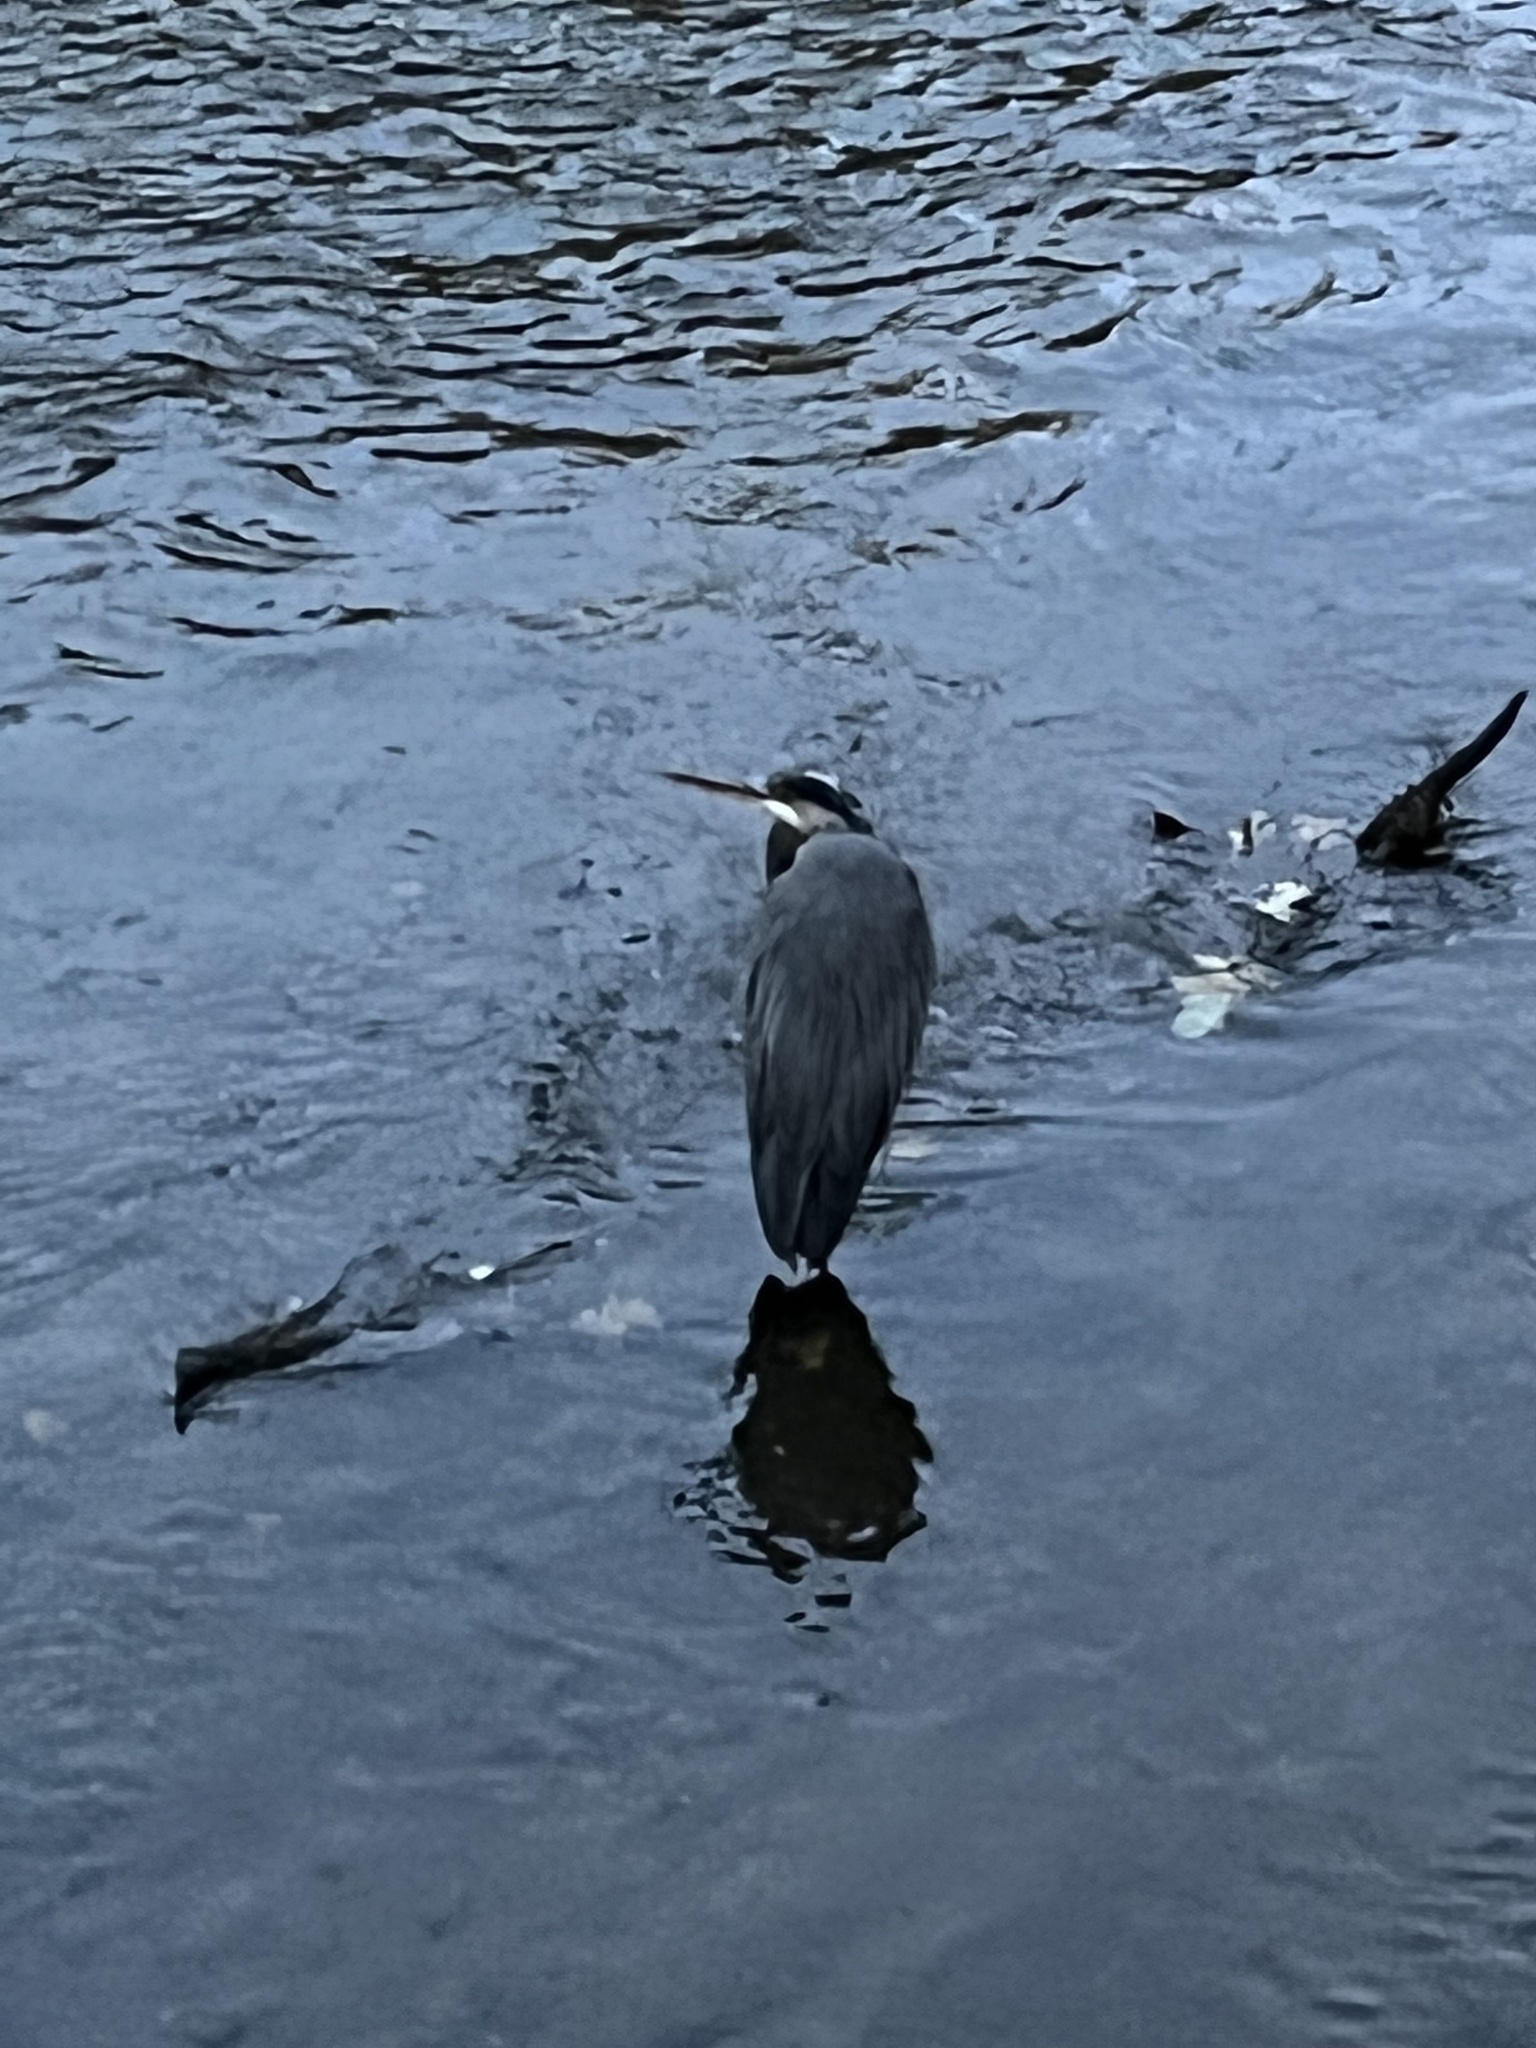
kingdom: Animalia
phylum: Chordata
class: Aves
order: Pelecaniformes
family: Ardeidae
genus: Ardea
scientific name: Ardea herodias
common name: Great blue heron
